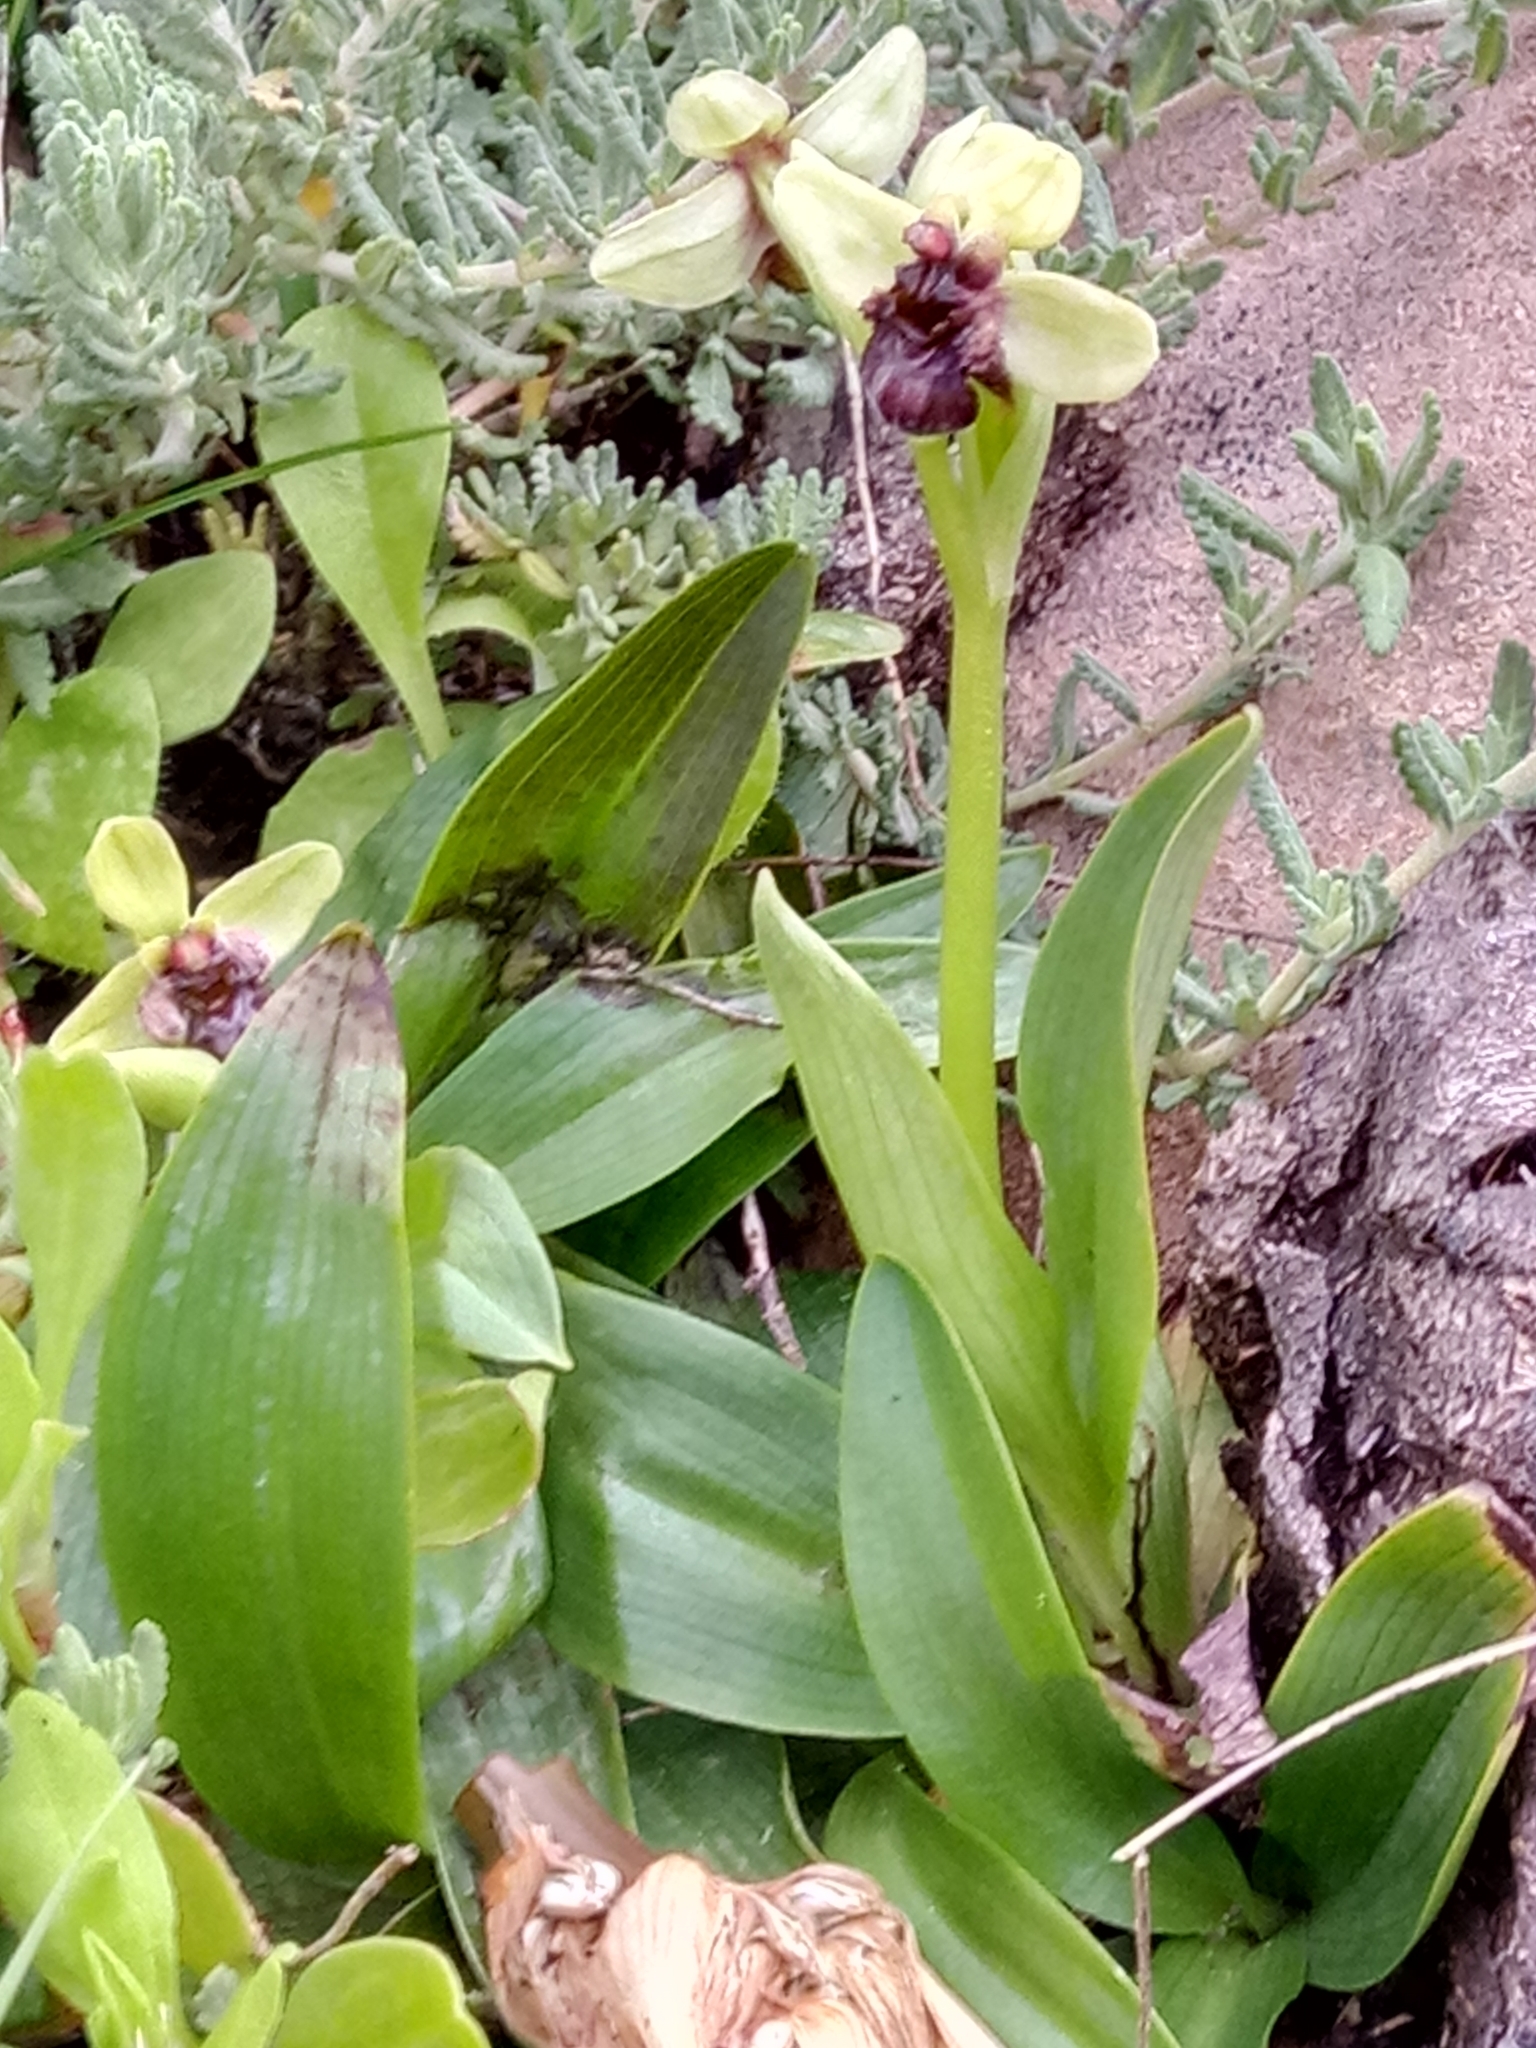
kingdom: Plantae
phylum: Tracheophyta
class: Liliopsida
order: Asparagales
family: Orchidaceae
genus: Ophrys
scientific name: Ophrys bombyliflora
